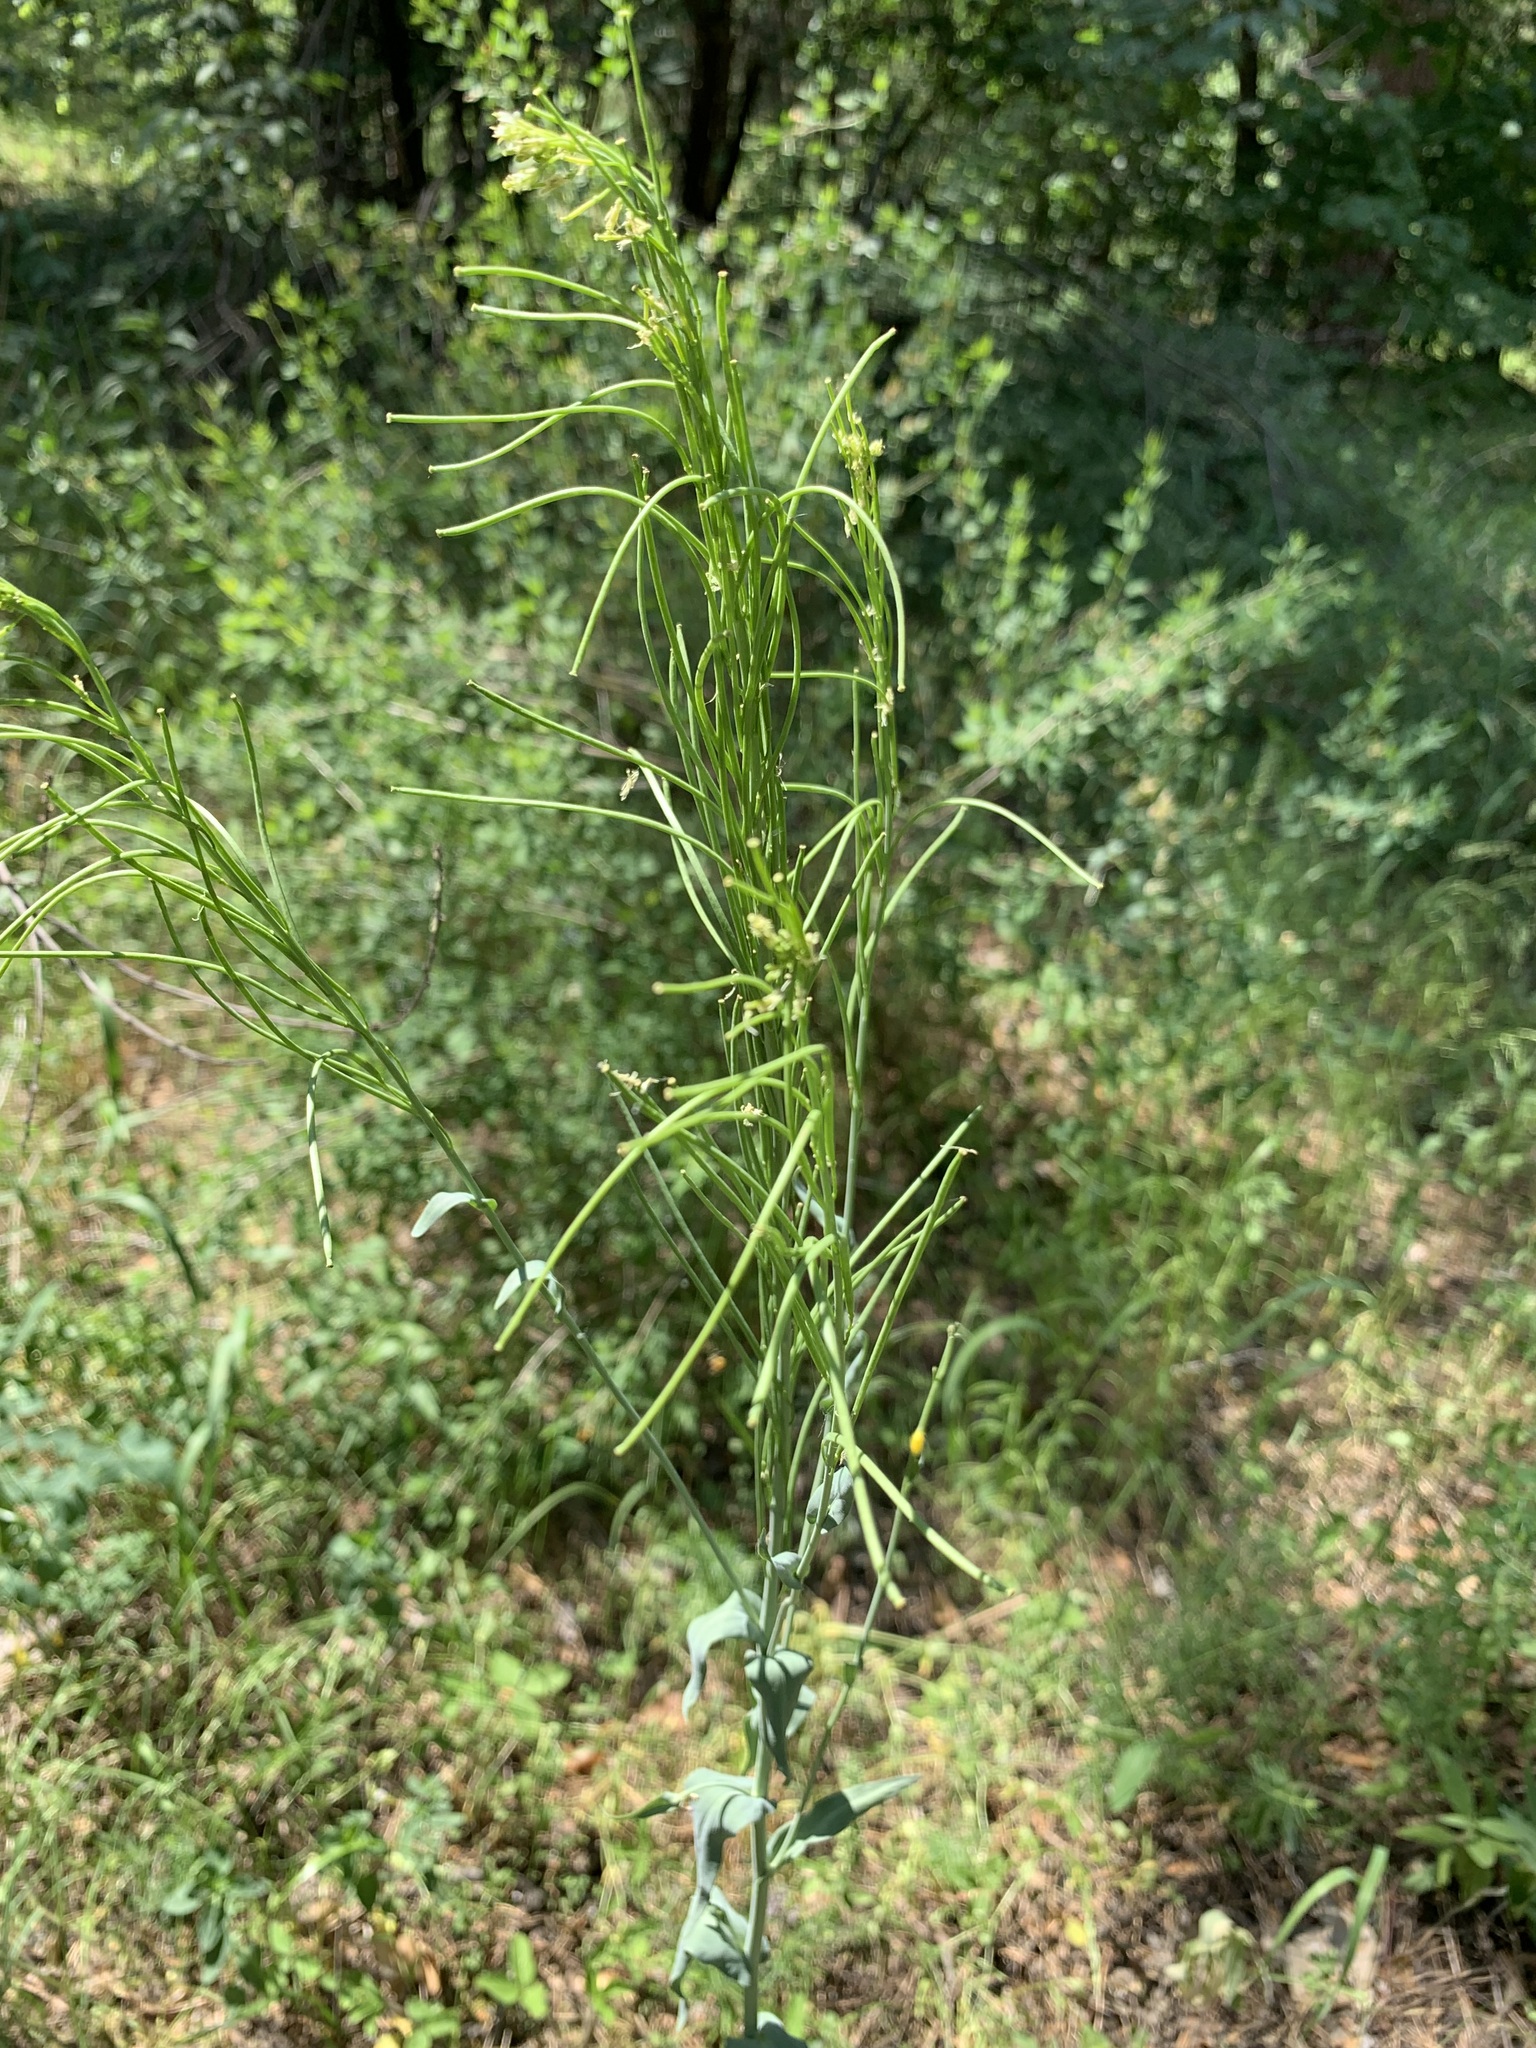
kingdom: Plantae
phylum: Tracheophyta
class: Magnoliopsida
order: Brassicales
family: Brassicaceae
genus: Turritis
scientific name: Turritis glabra
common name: Tower rockcress
